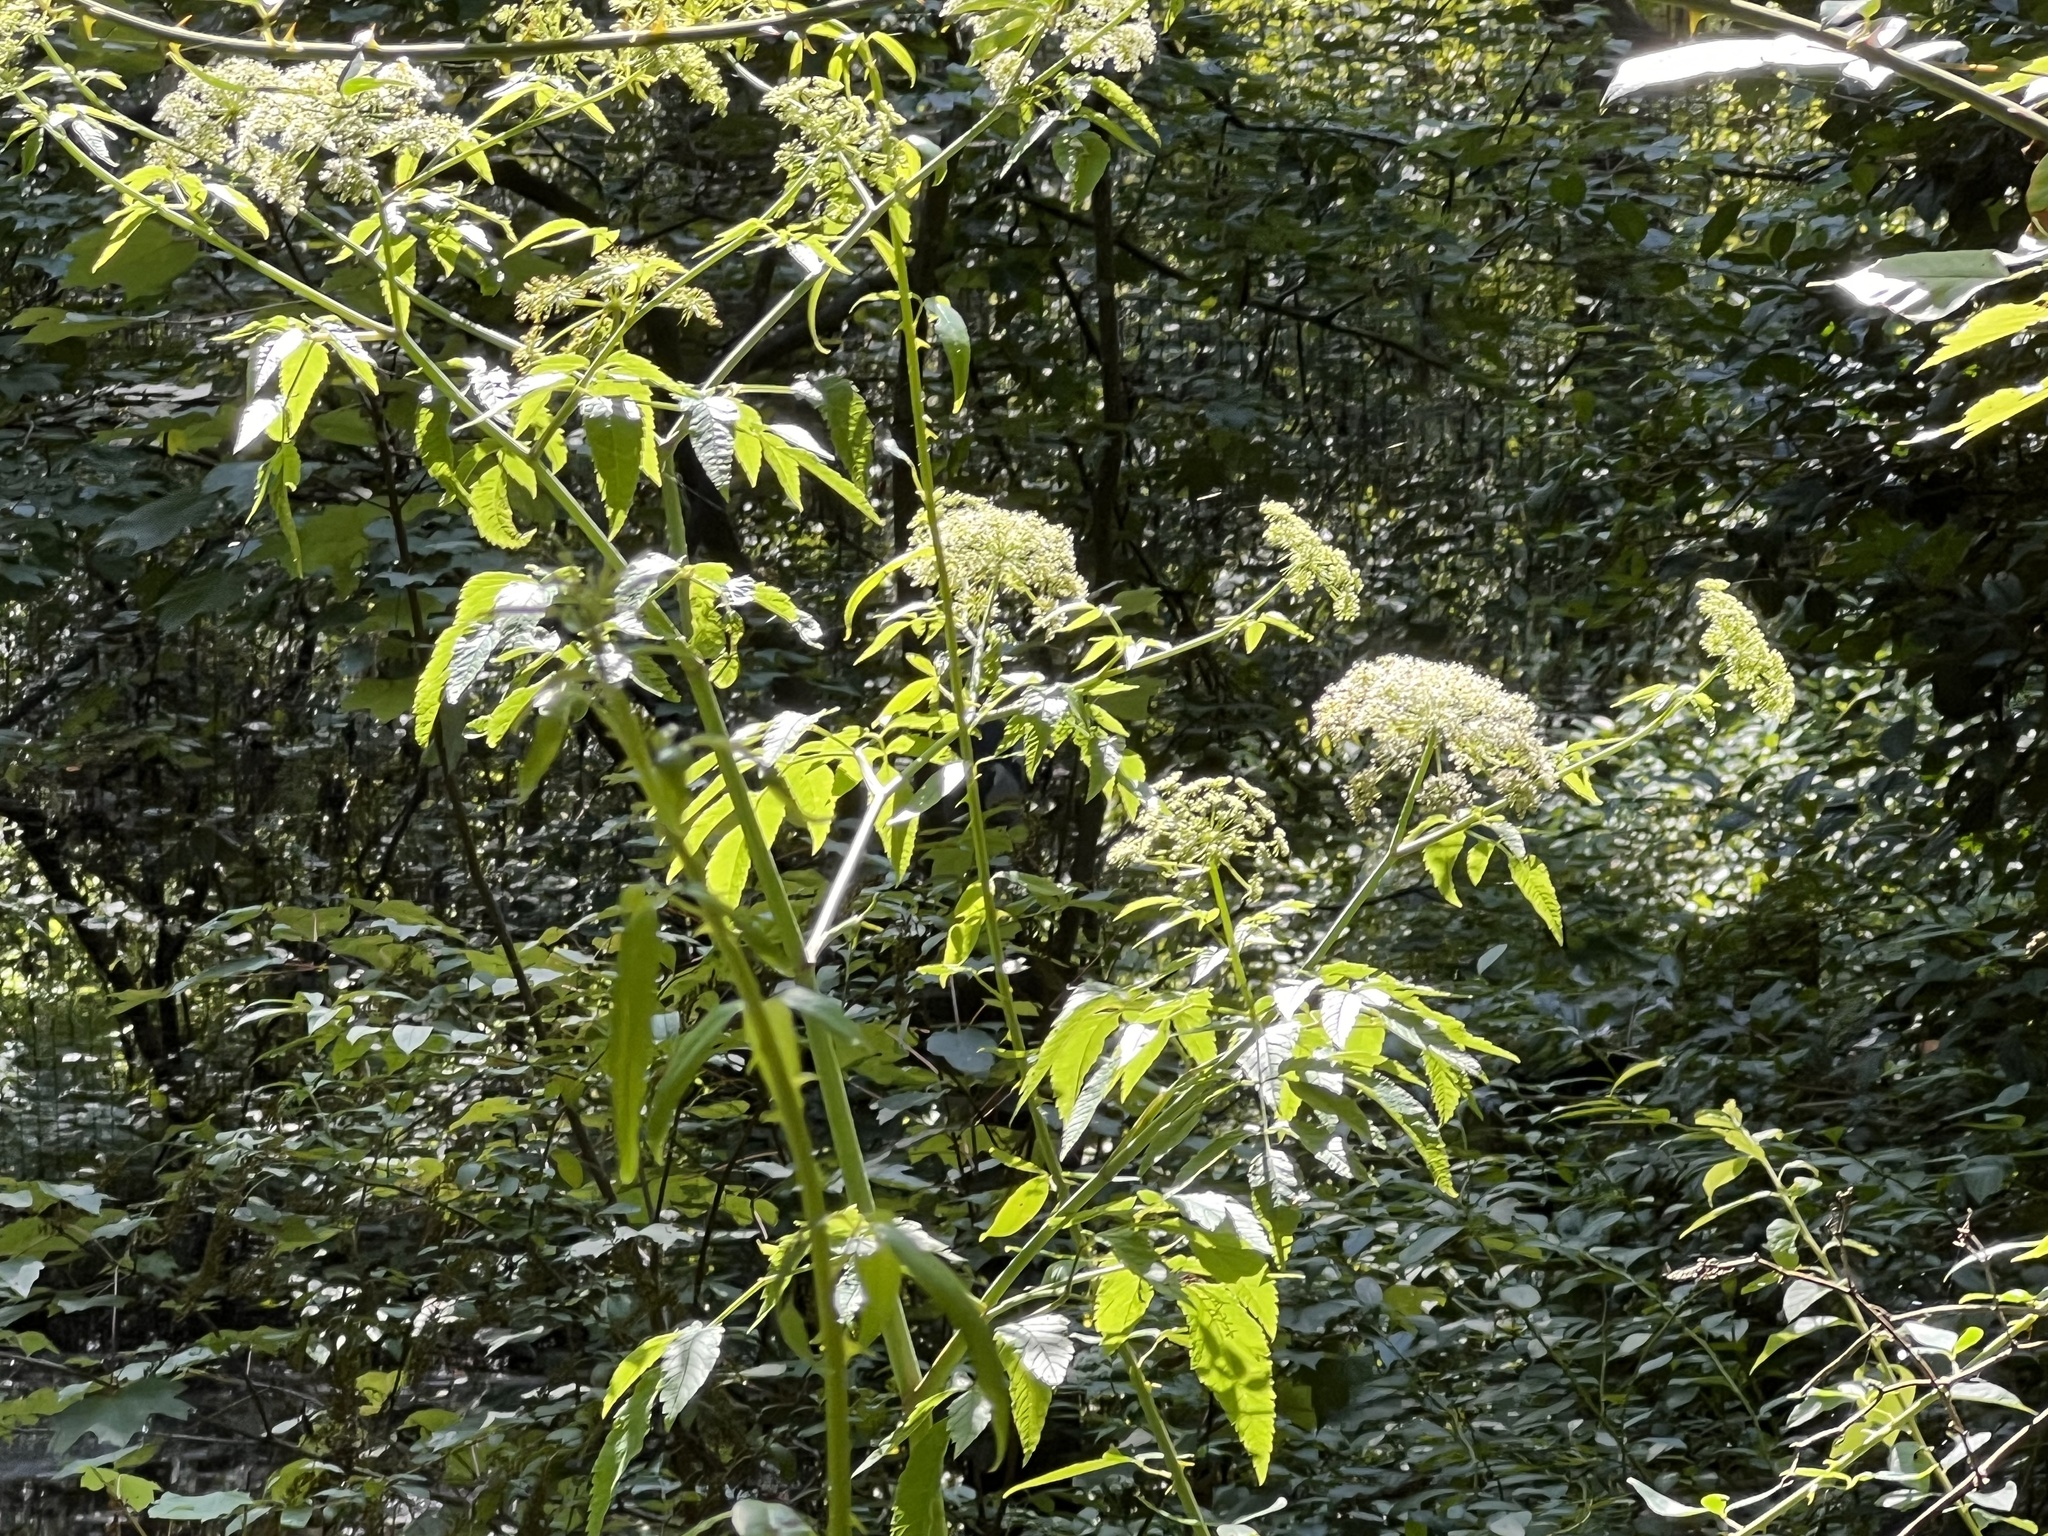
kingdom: Plantae
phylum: Tracheophyta
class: Magnoliopsida
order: Apiales
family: Apiaceae
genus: Cicuta
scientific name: Cicuta maculata
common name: Spotted cowbane
